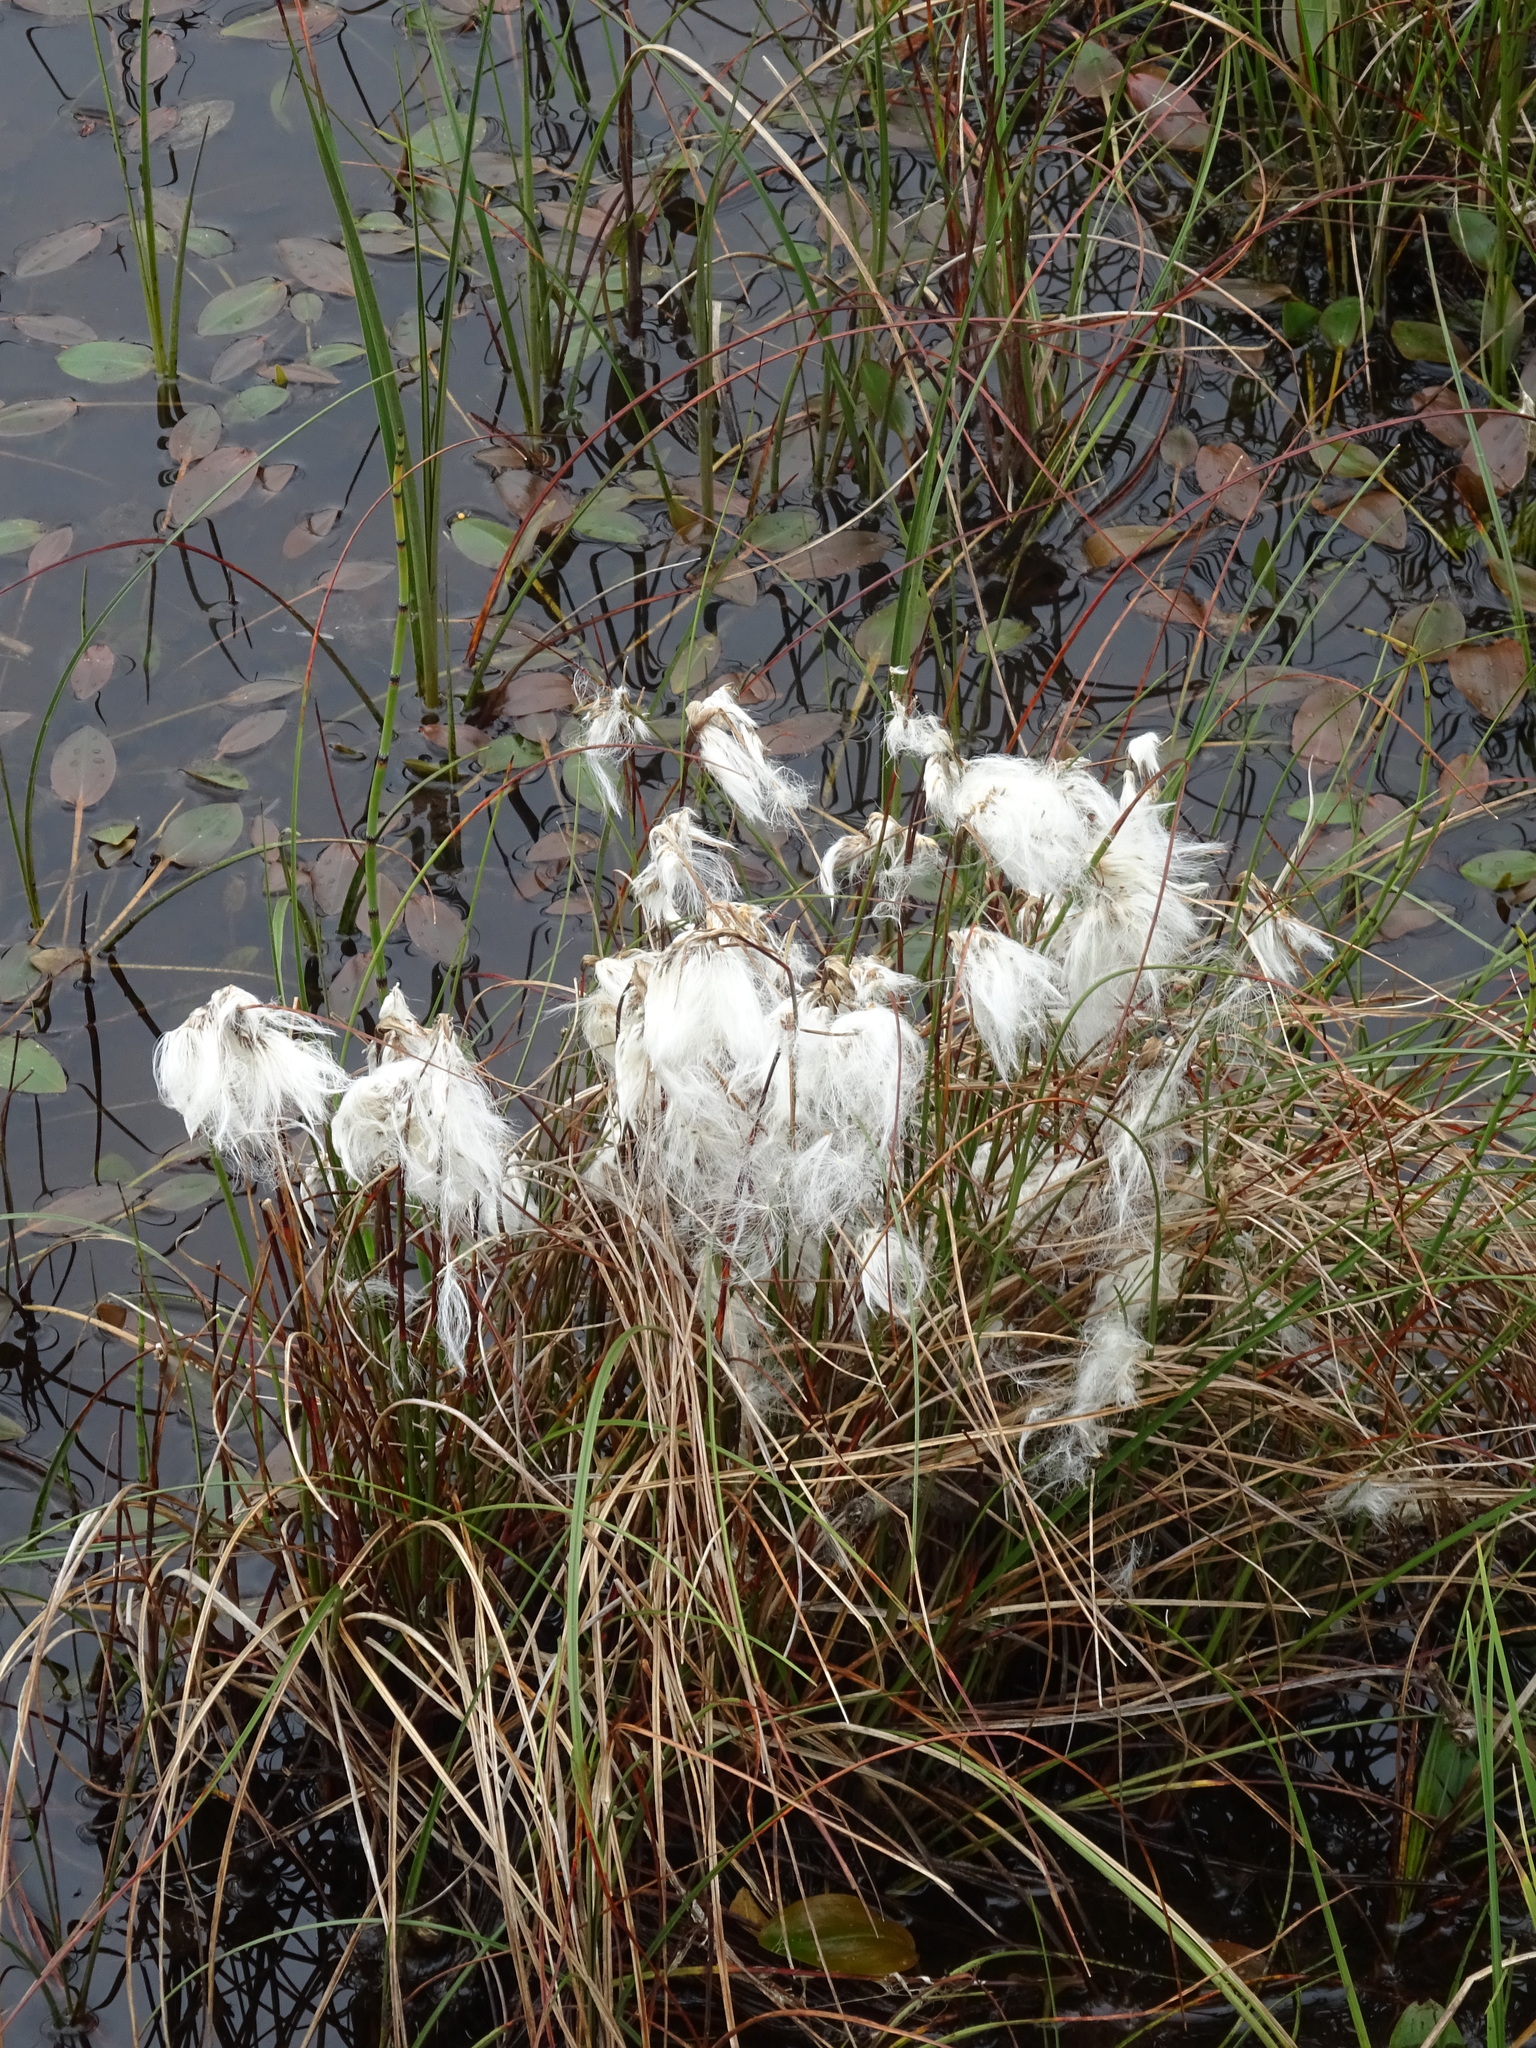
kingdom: Plantae
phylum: Tracheophyta
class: Liliopsida
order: Poales
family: Cyperaceae
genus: Eriophorum
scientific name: Eriophorum angustifolium
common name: Common cottongrass
